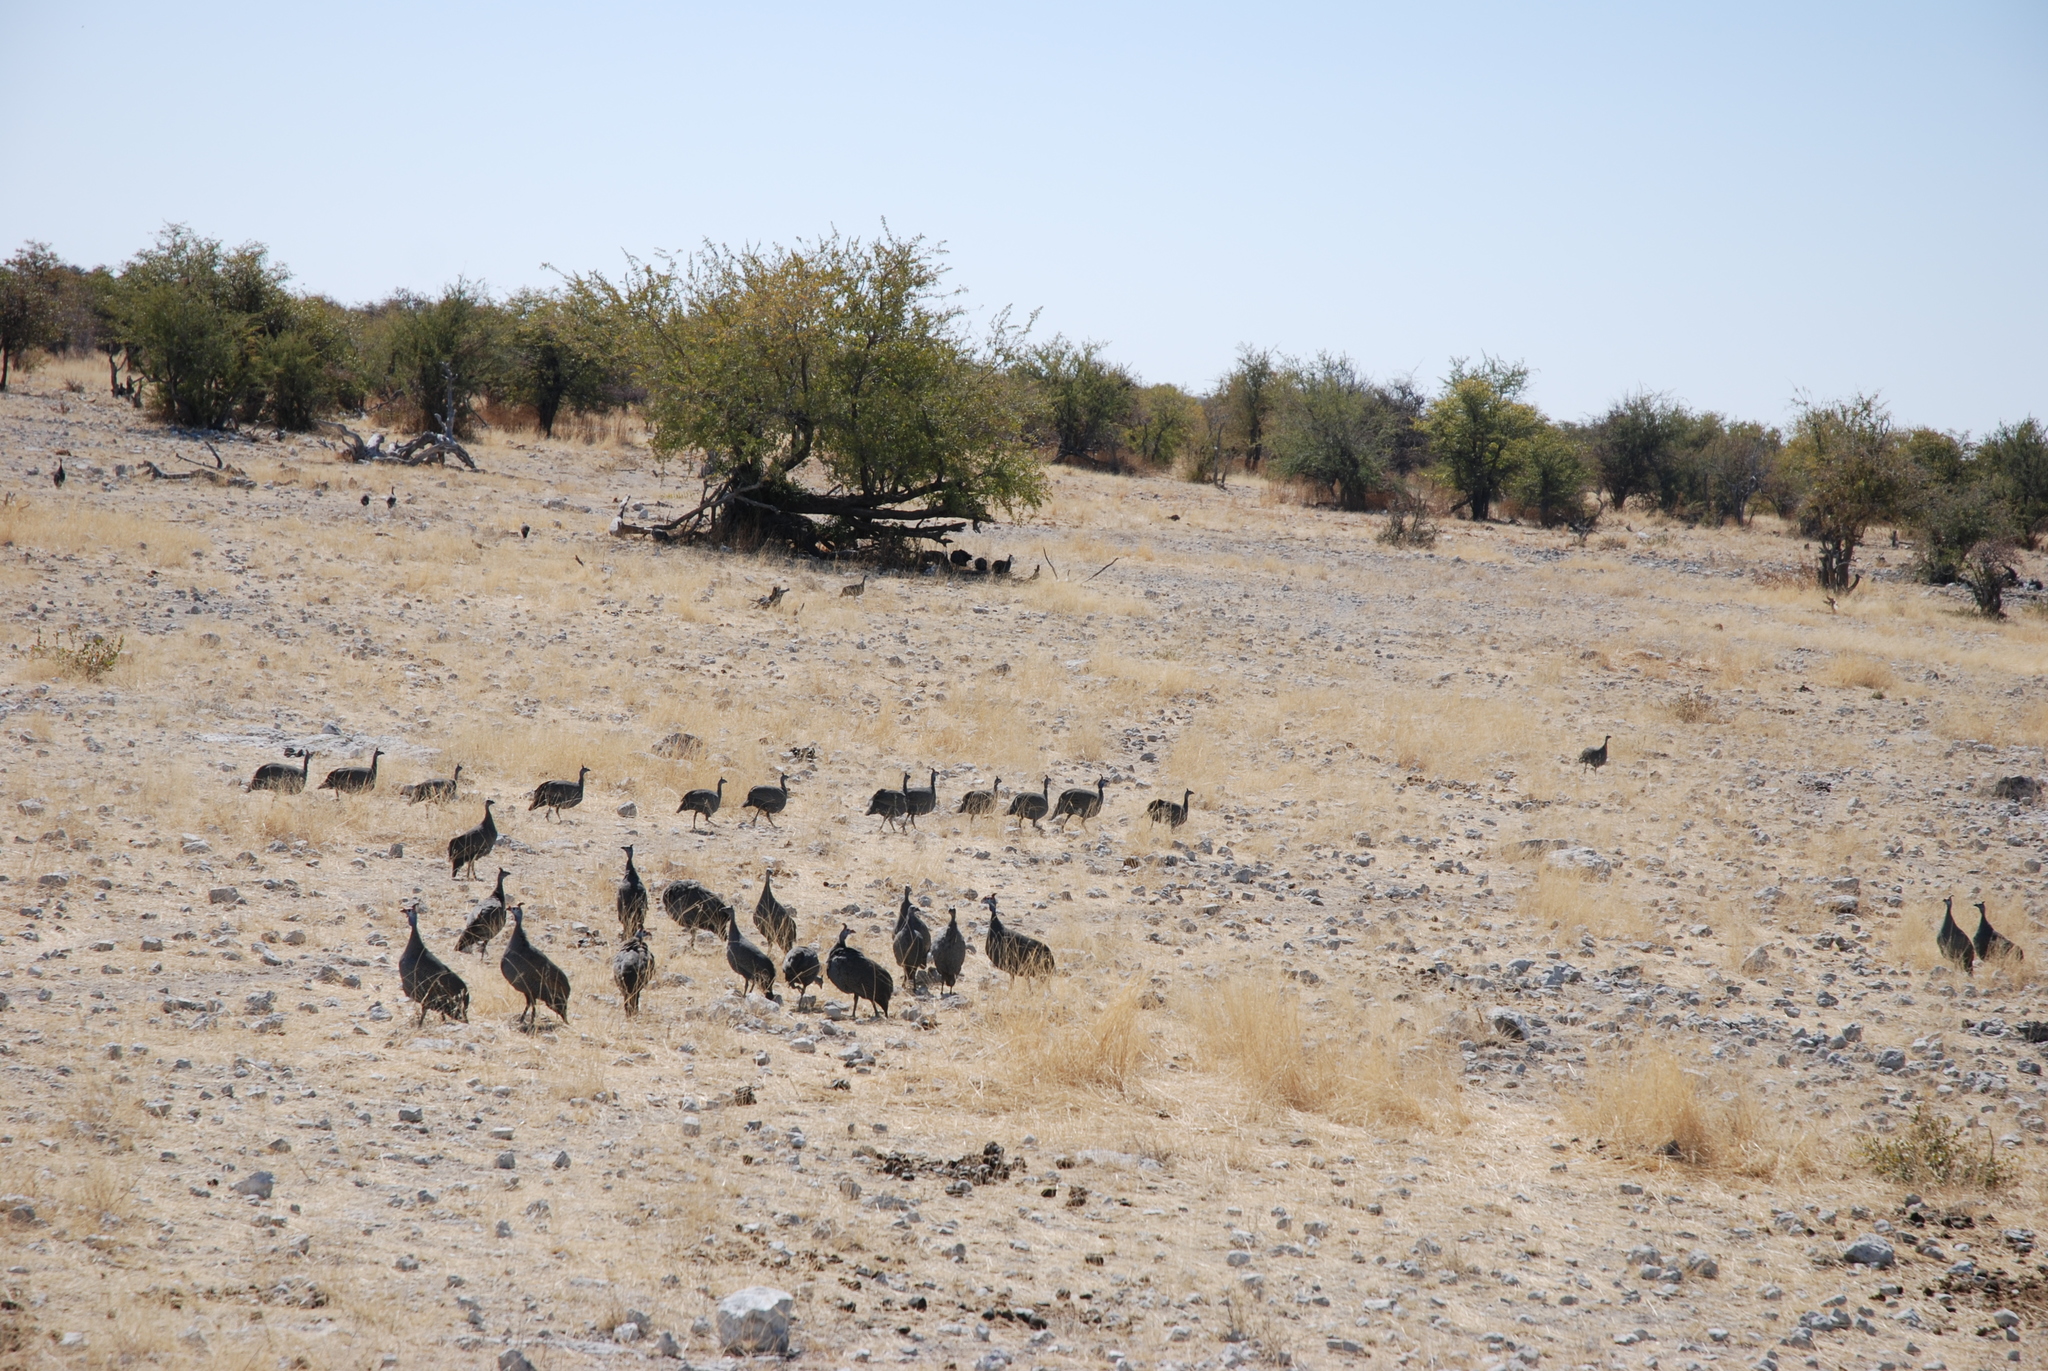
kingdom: Animalia
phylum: Chordata
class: Aves
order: Galliformes
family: Numididae
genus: Numida
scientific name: Numida meleagris
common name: Helmeted guineafowl
